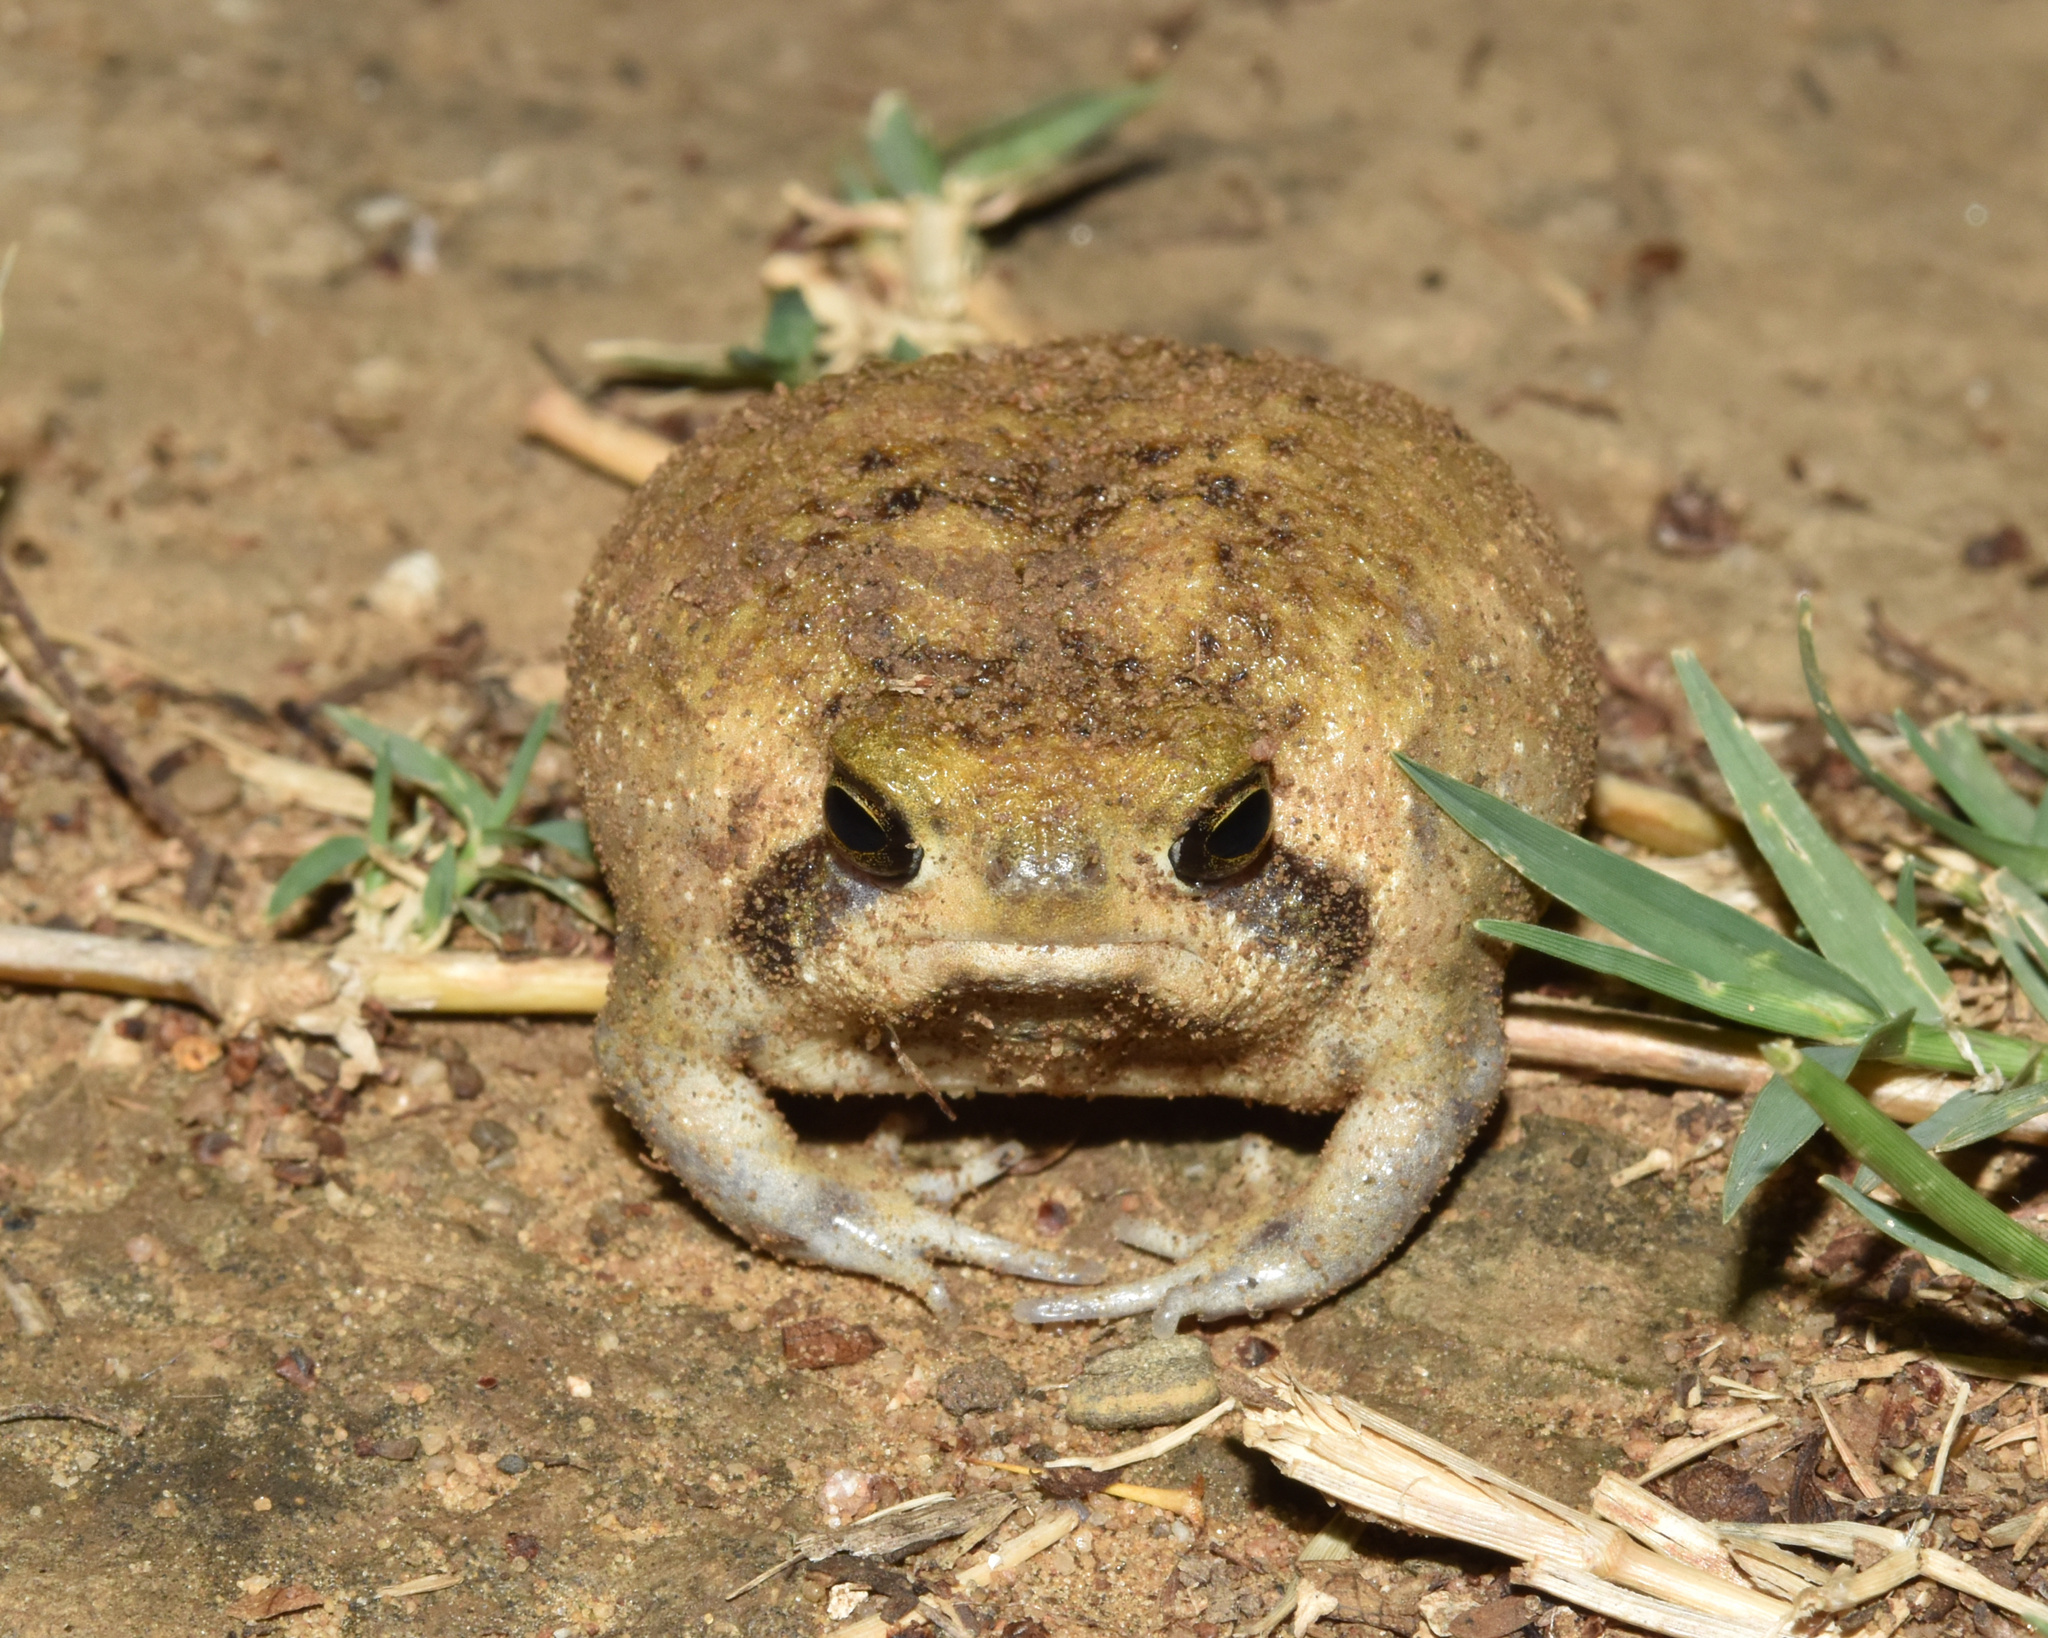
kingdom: Animalia
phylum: Chordata
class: Amphibia
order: Anura
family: Brevicipitidae
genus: Breviceps
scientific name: Breviceps adspersus
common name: Common rain frog
